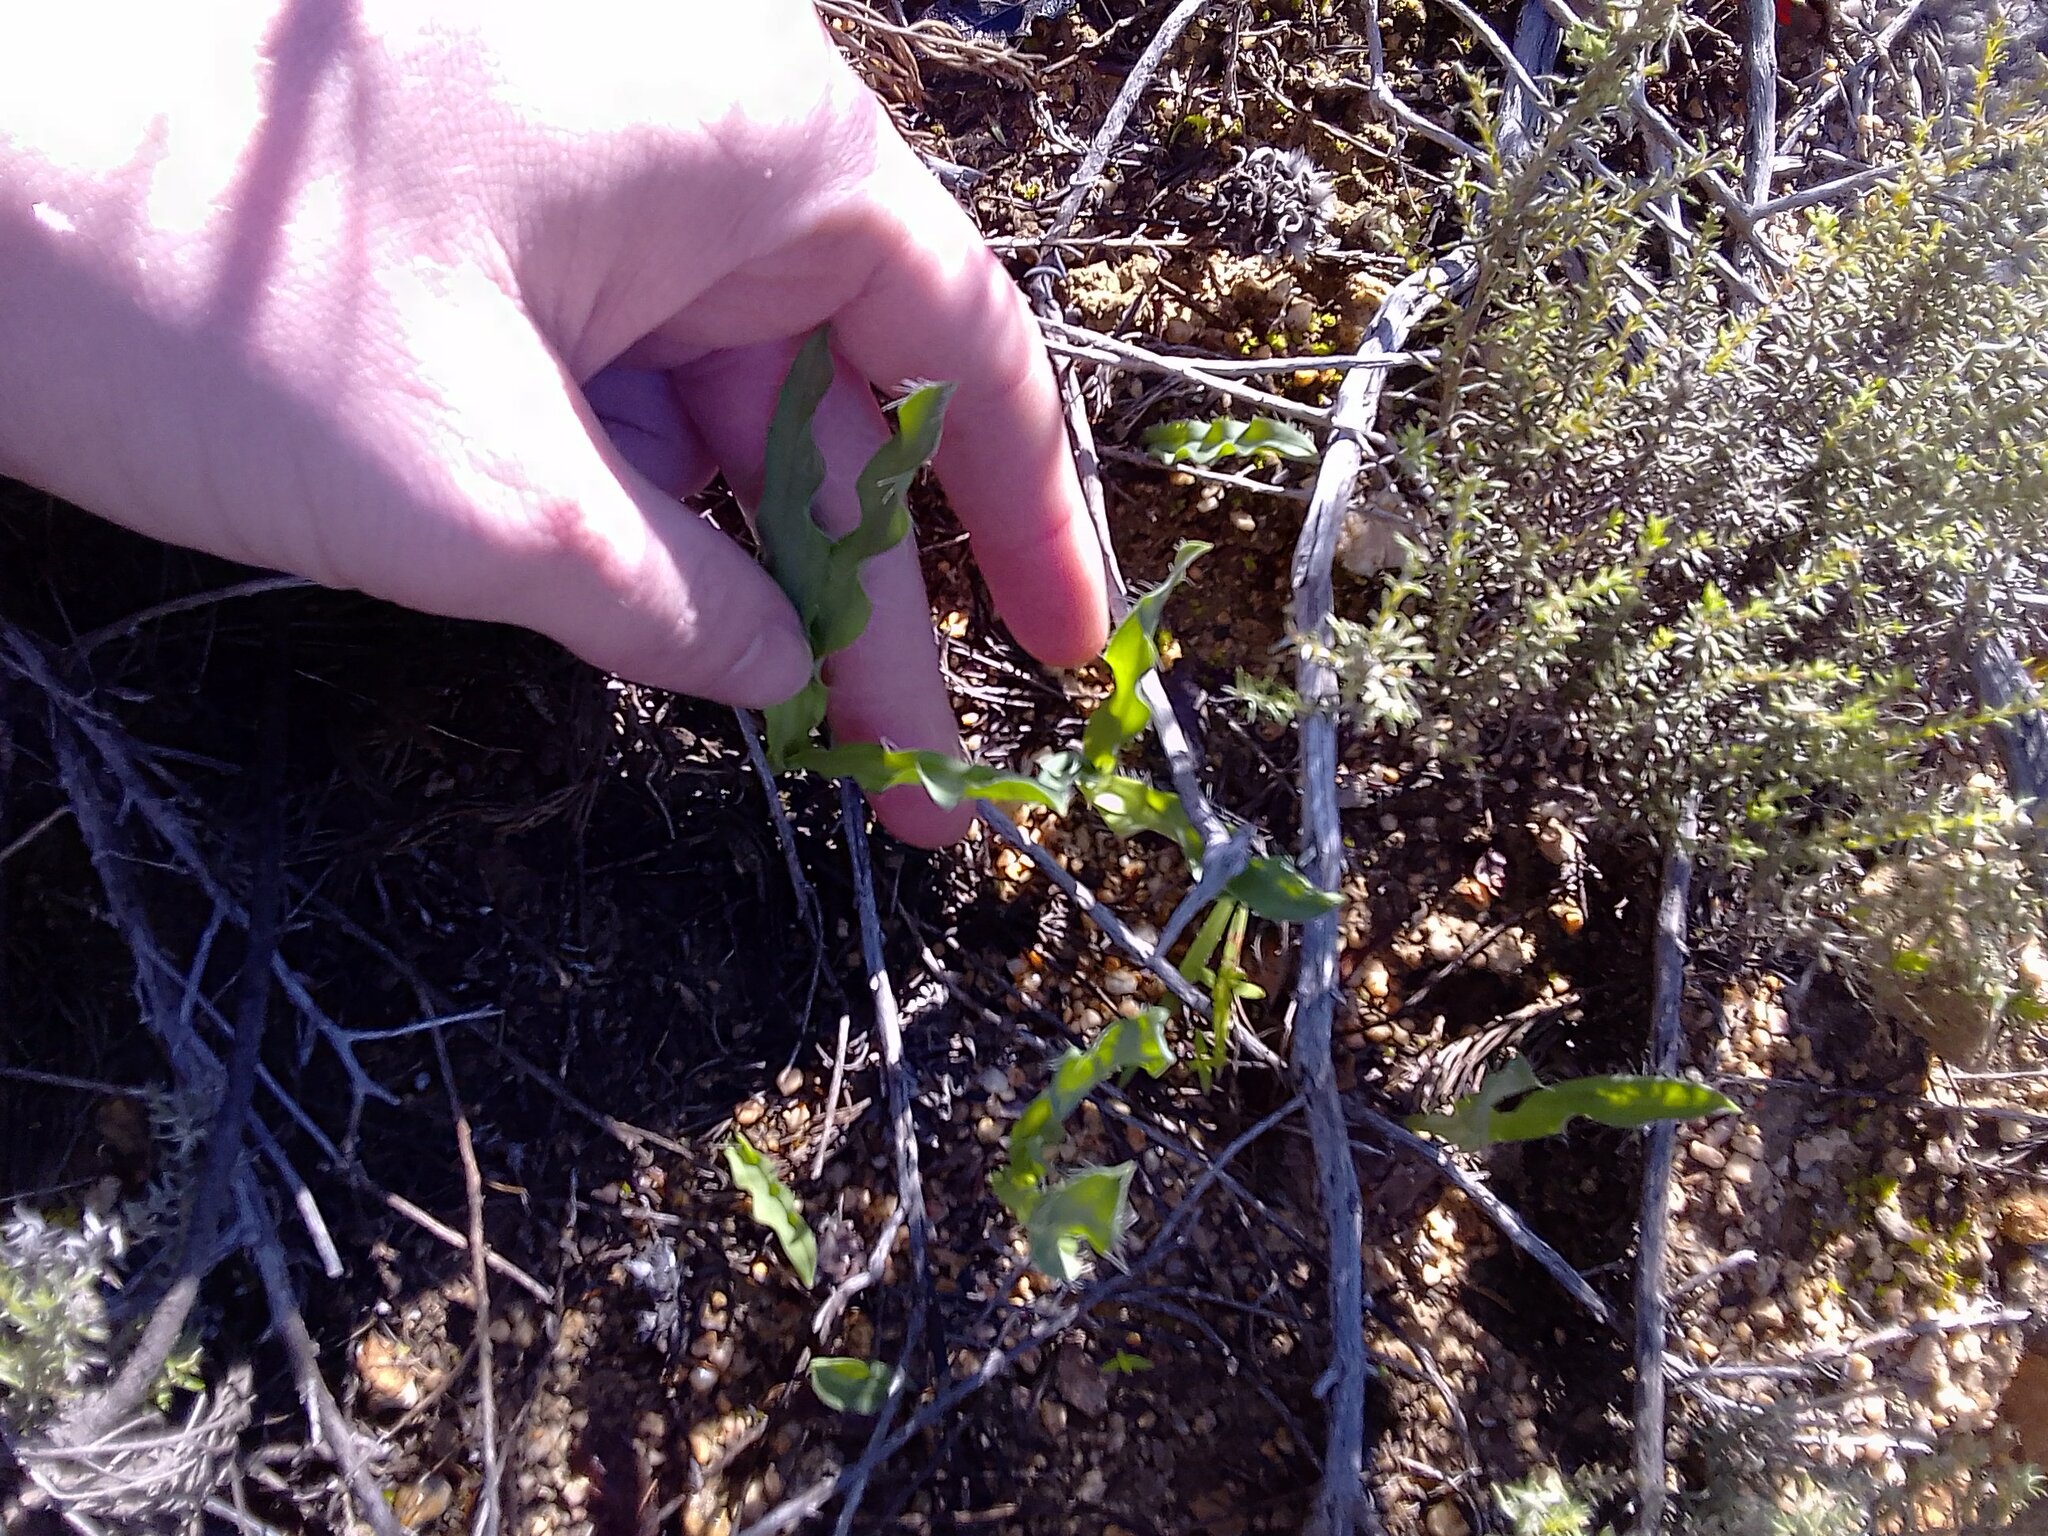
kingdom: Plantae
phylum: Tracheophyta
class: Liliopsida
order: Asparagales
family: Asparagaceae
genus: Drimia
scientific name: Drimia elata
